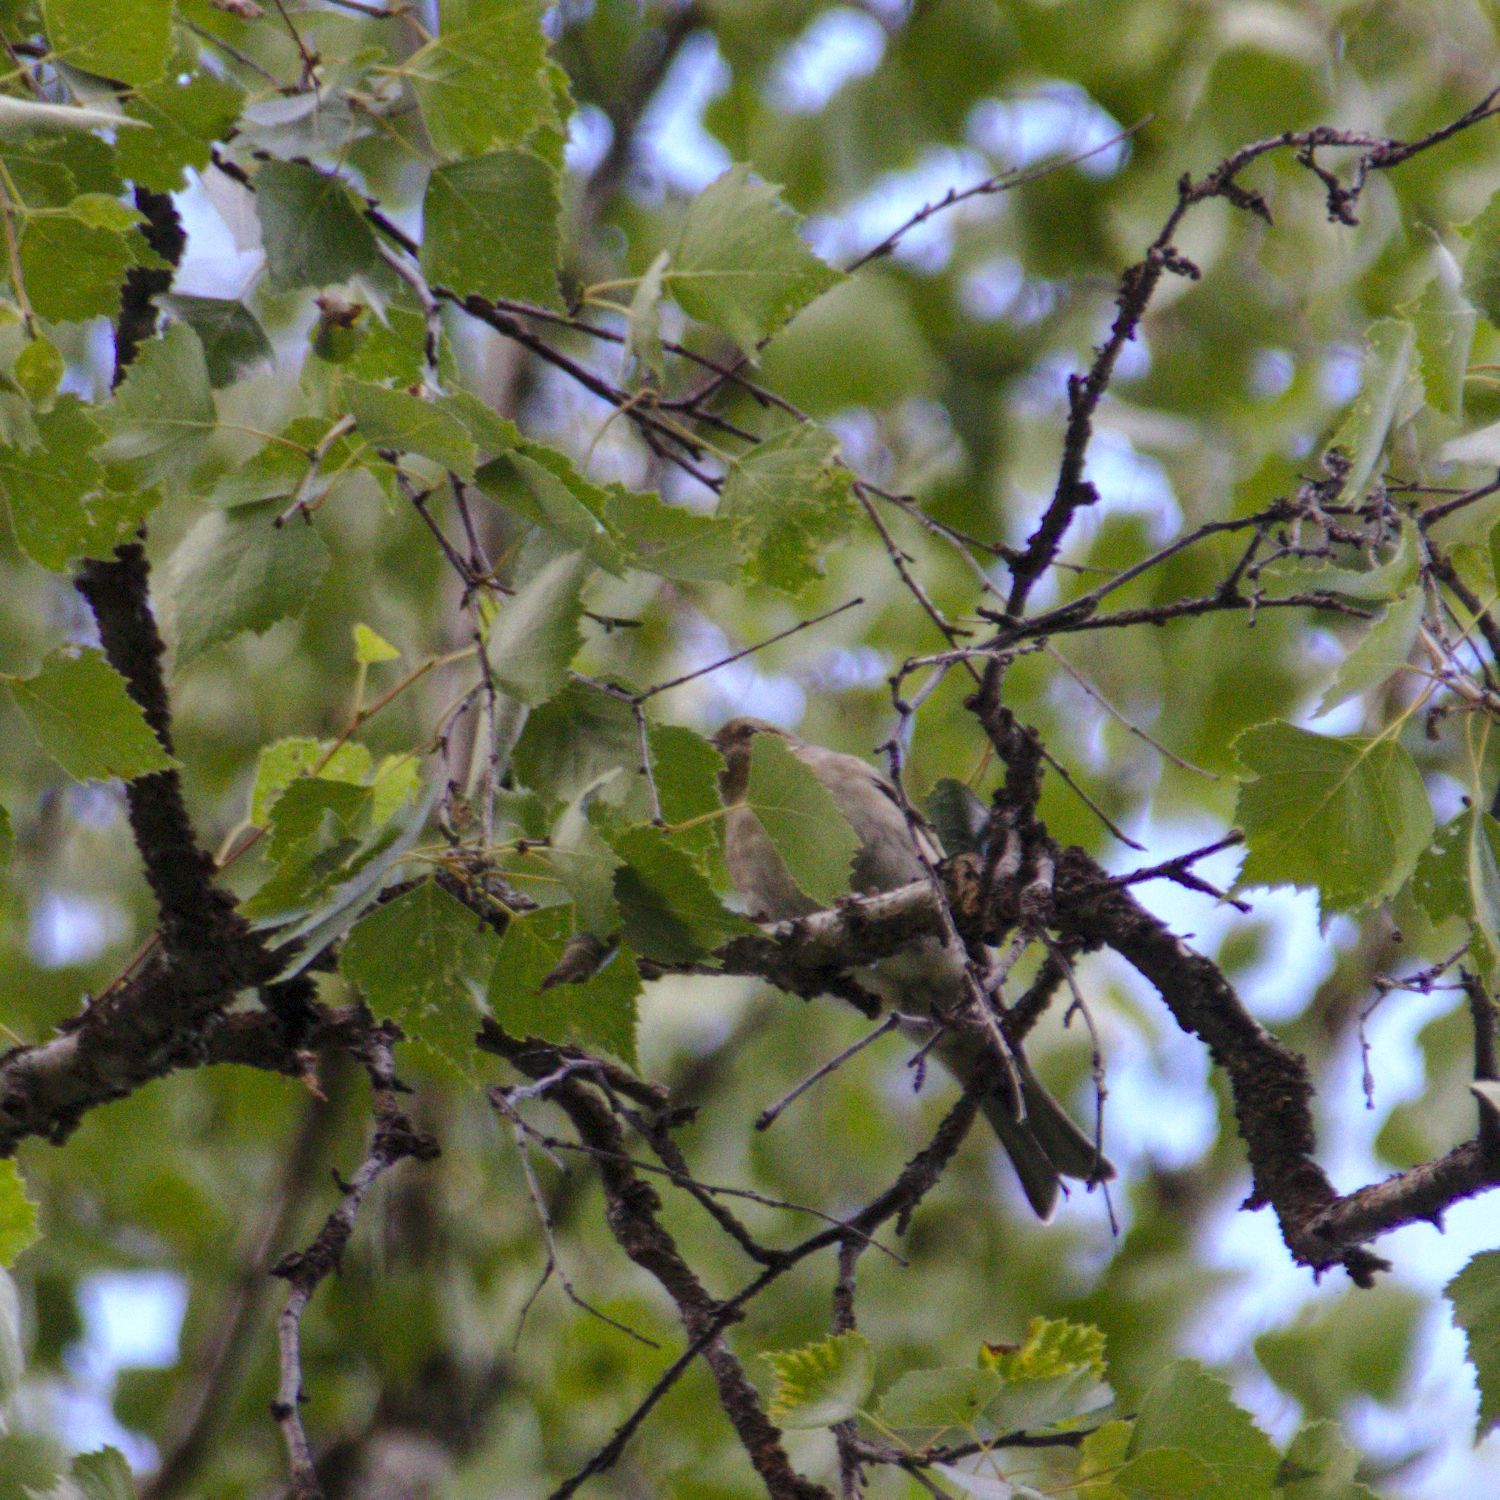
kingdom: Animalia
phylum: Chordata
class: Aves
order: Passeriformes
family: Fringillidae
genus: Fringilla
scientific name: Fringilla coelebs
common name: Common chaffinch
